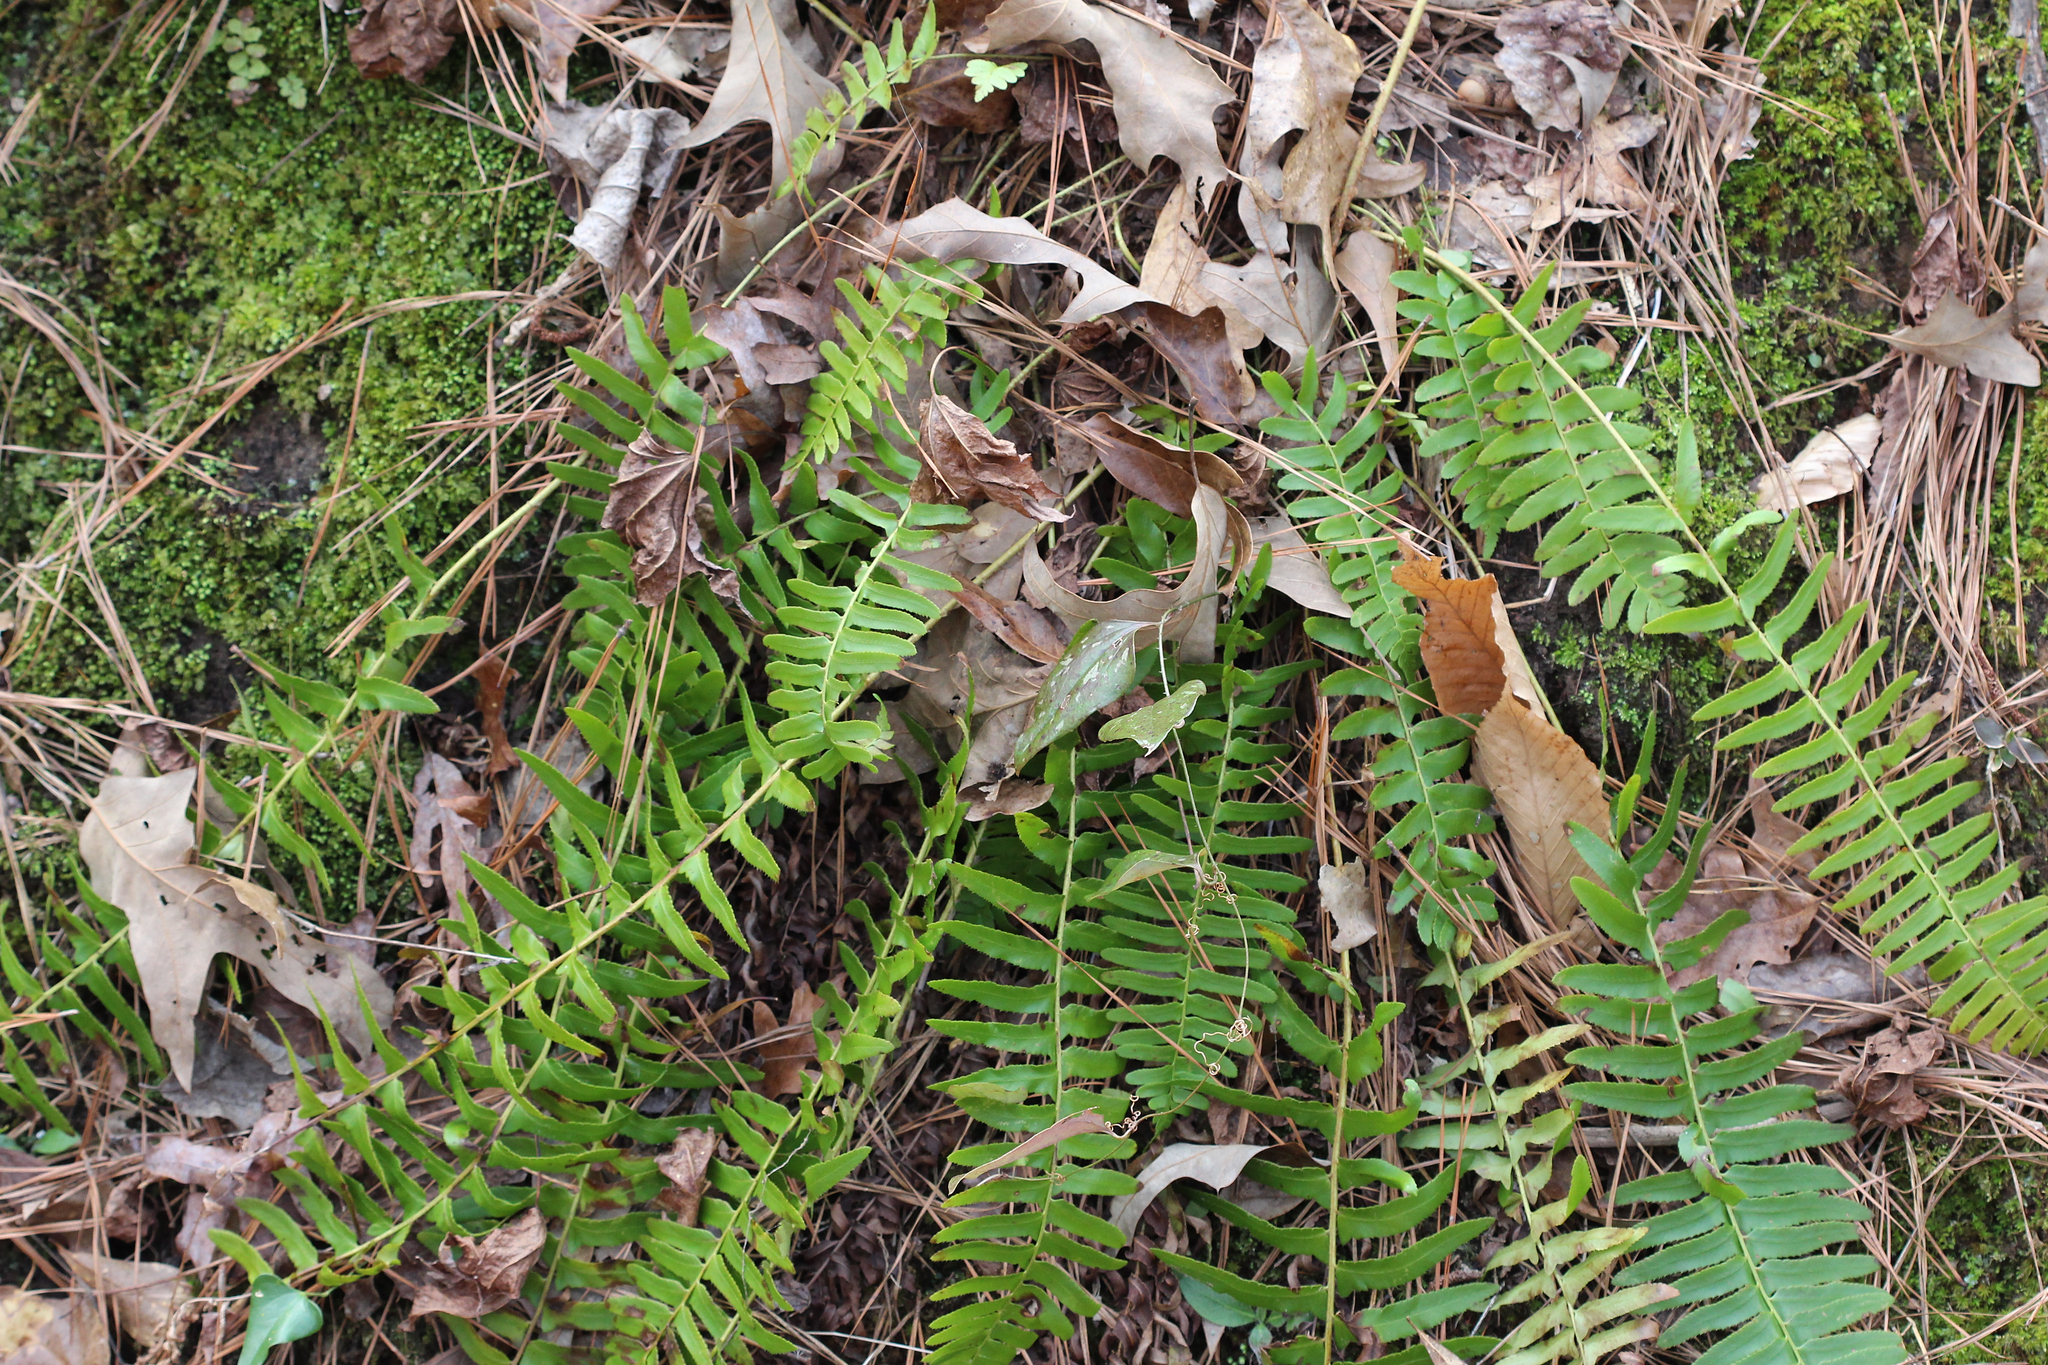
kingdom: Plantae
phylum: Tracheophyta
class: Polypodiopsida
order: Polypodiales
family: Dryopteridaceae
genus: Polystichum
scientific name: Polystichum acrostichoides
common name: Christmas fern
